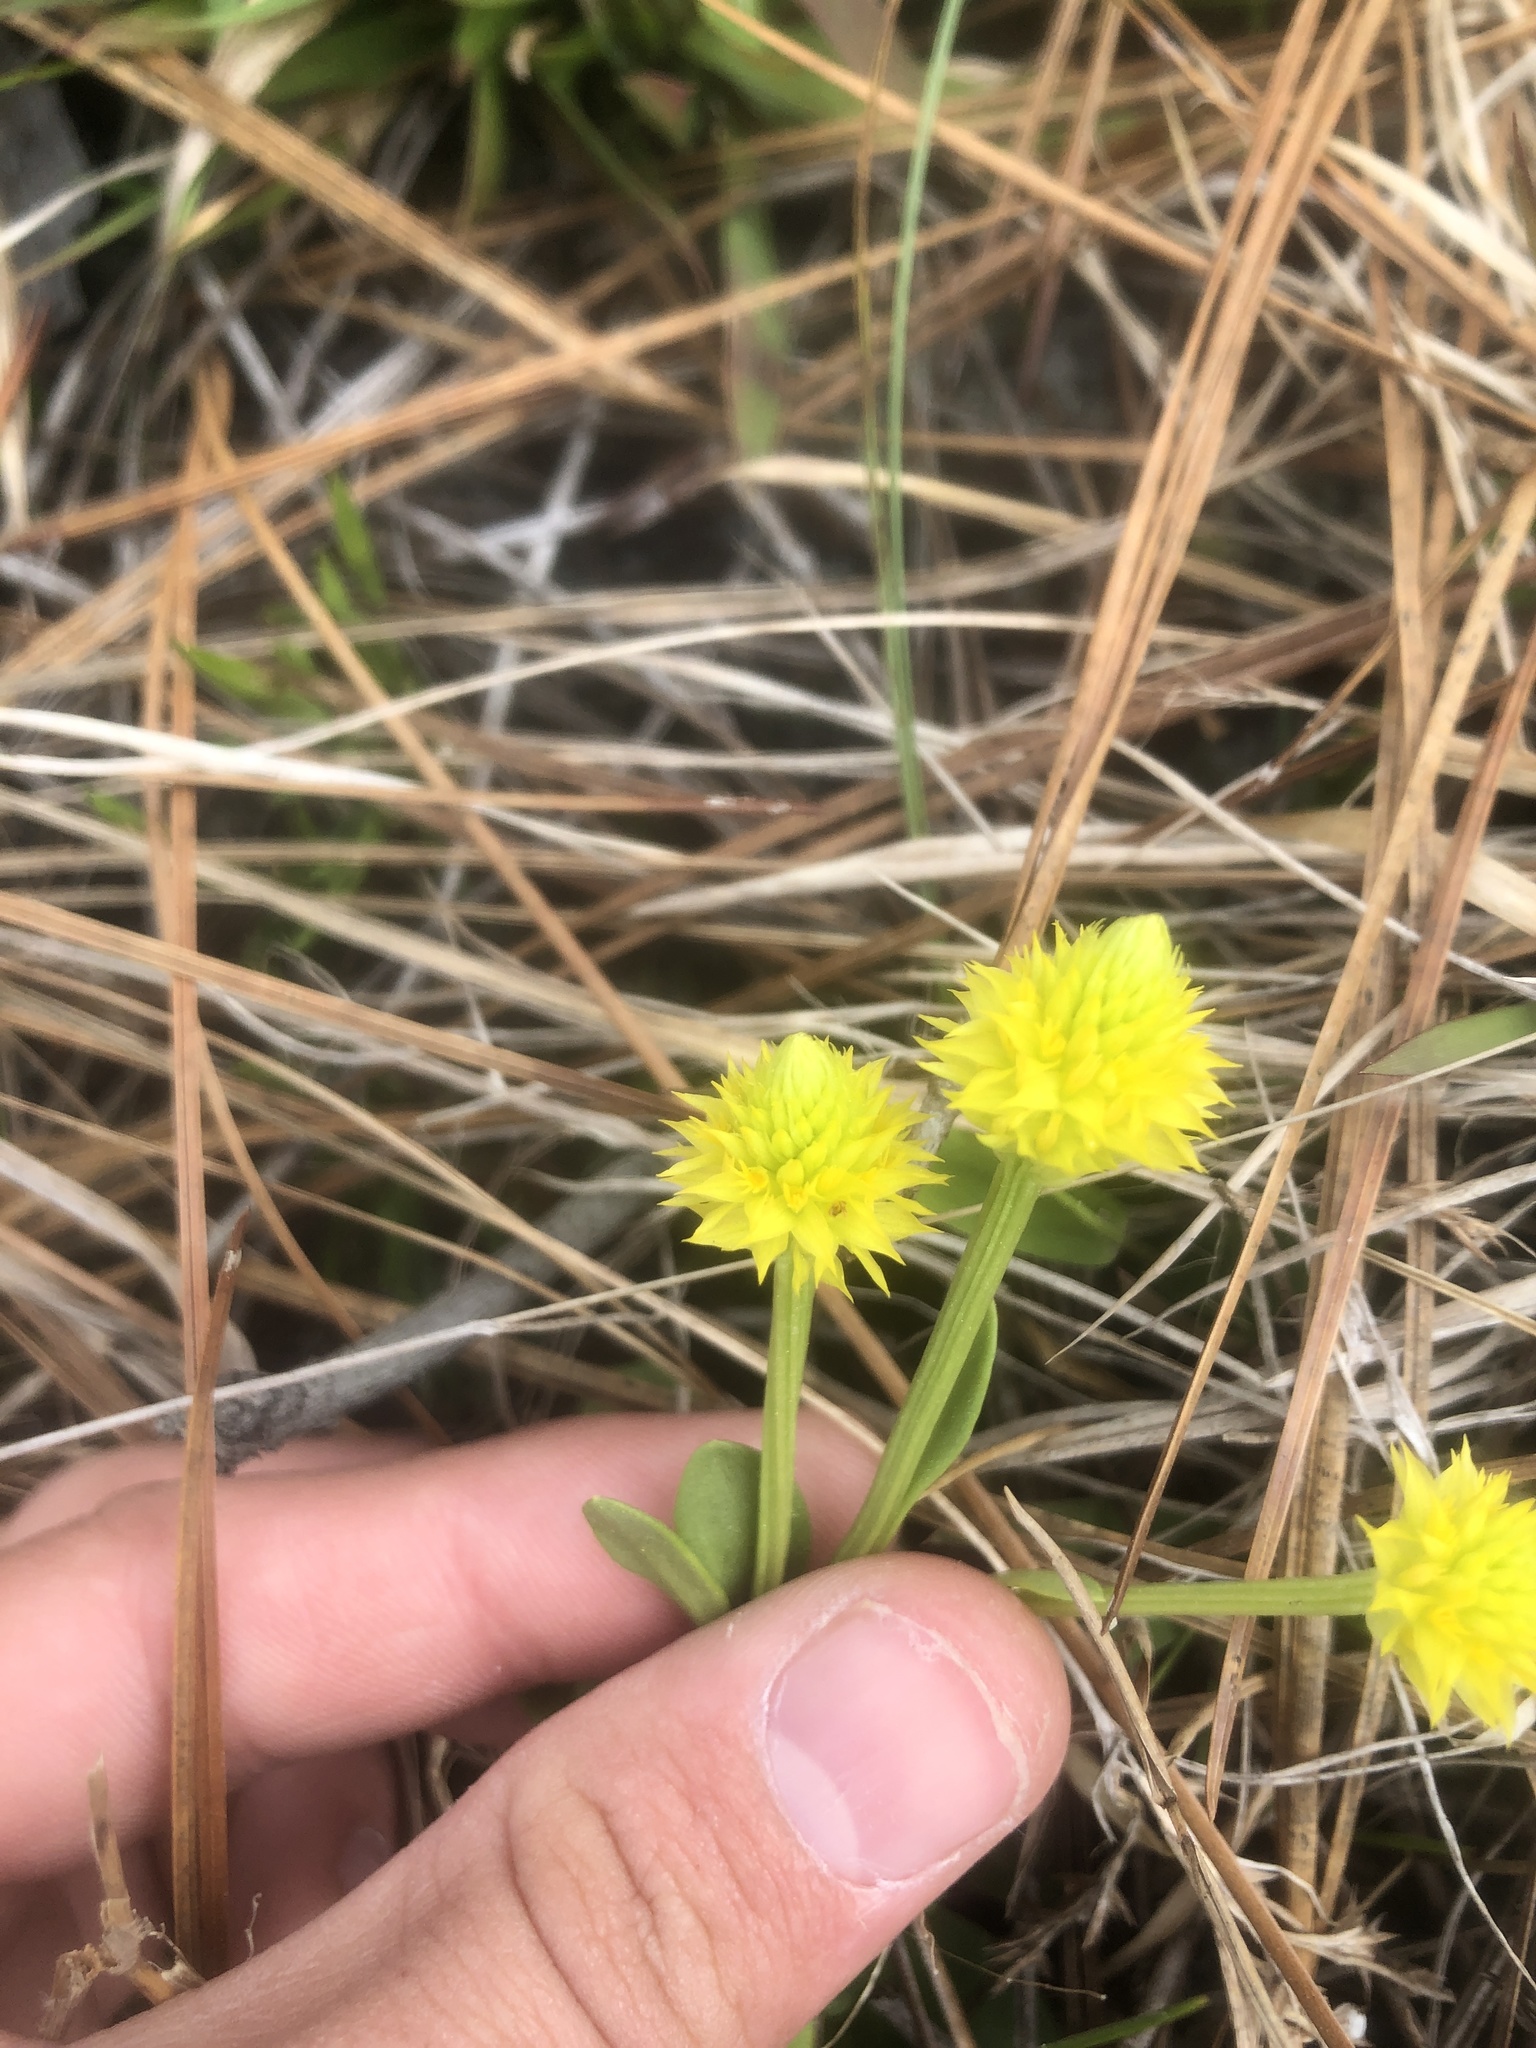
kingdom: Plantae
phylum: Tracheophyta
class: Magnoliopsida
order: Fabales
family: Polygalaceae
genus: Polygala
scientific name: Polygala nana
